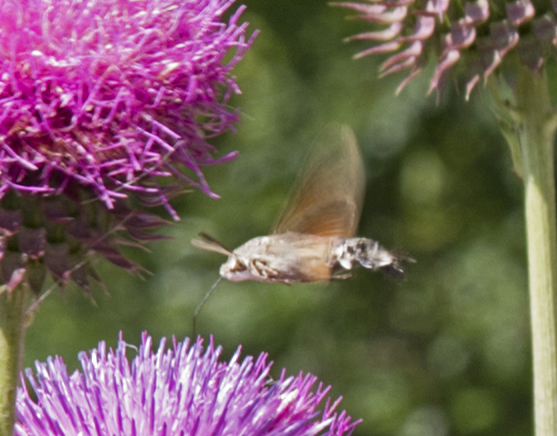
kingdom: Animalia
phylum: Arthropoda
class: Insecta
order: Lepidoptera
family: Sphingidae
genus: Macroglossum
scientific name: Macroglossum stellatarum
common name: Humming-bird hawk-moth
